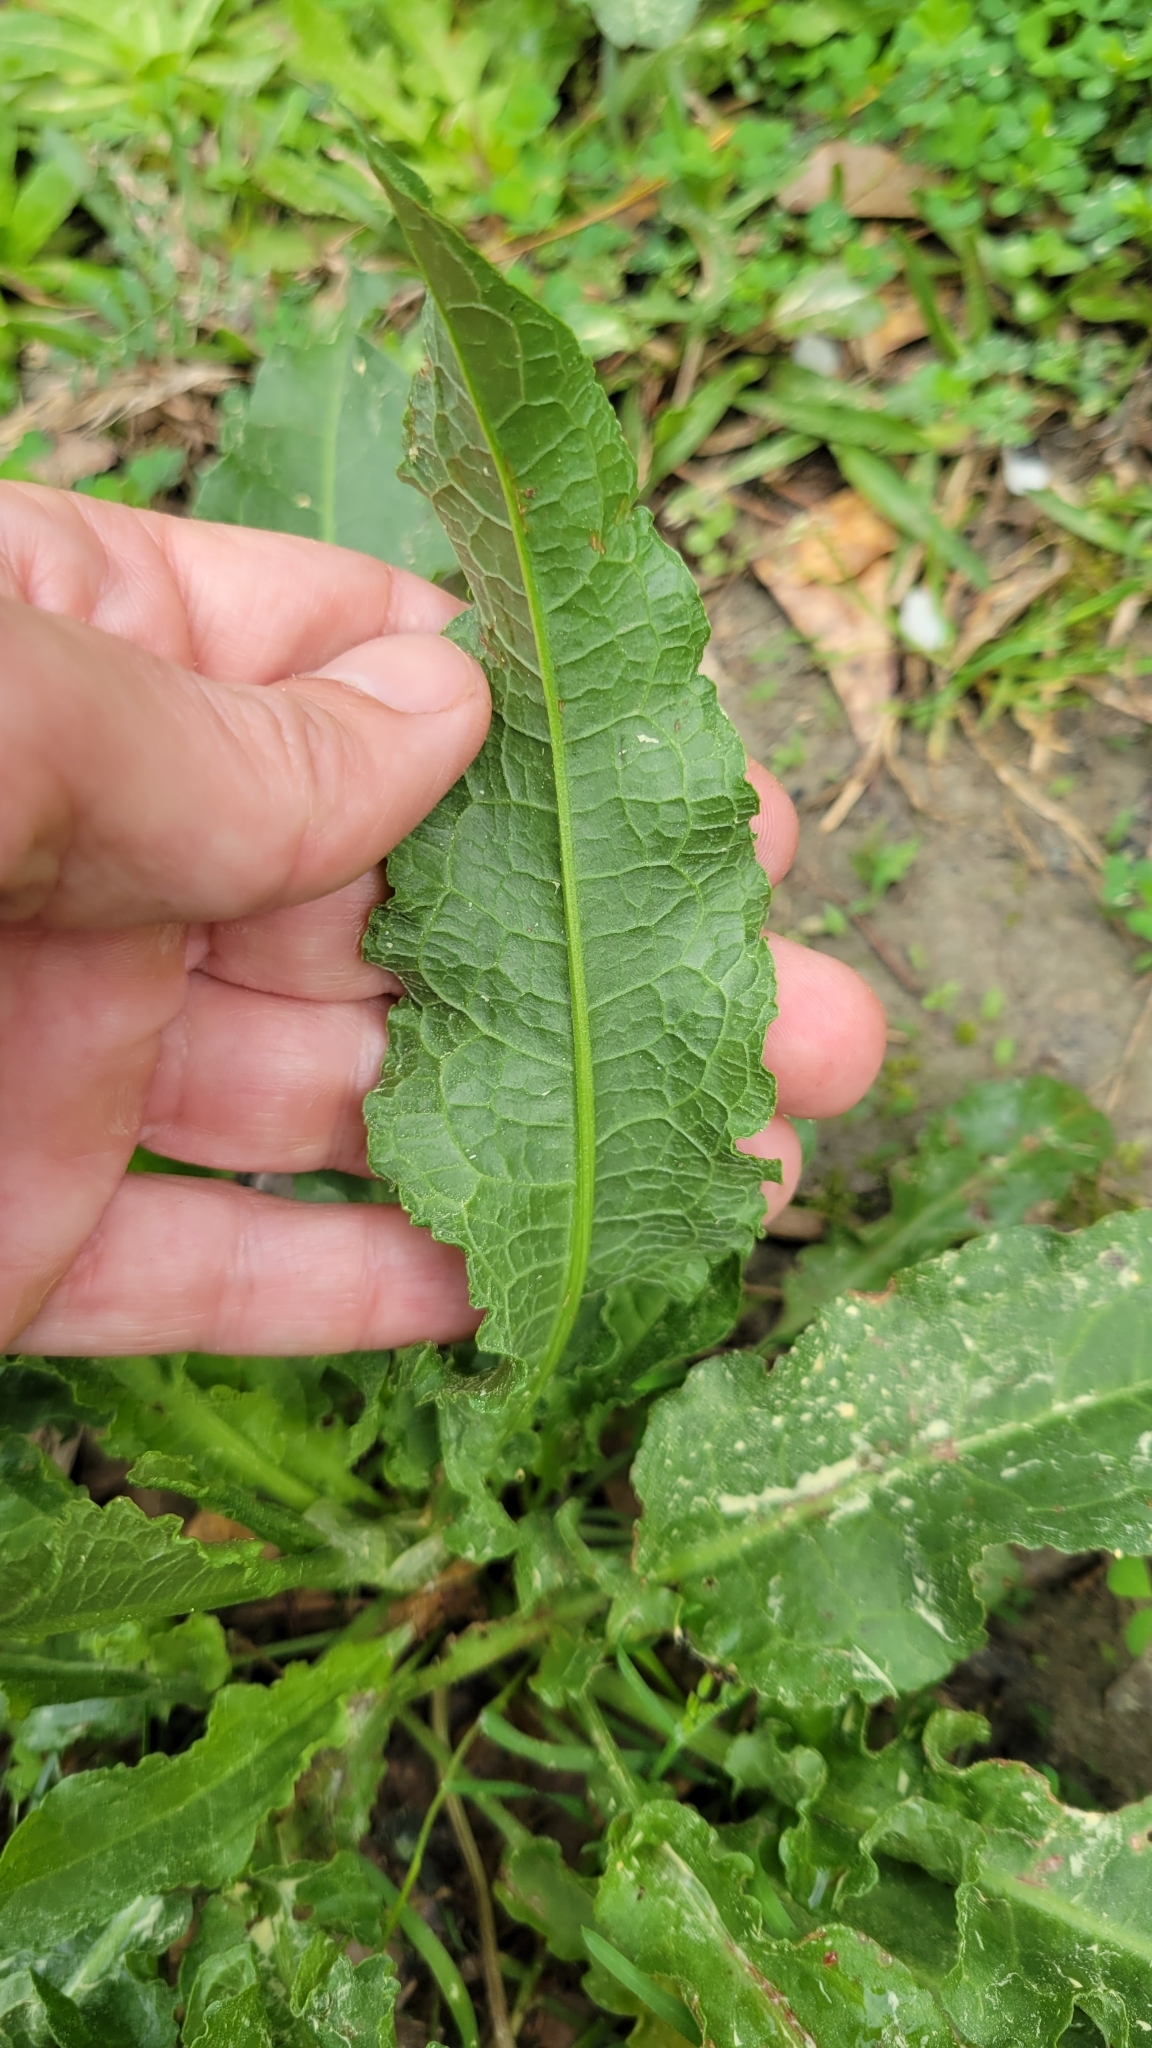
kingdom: Plantae
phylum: Tracheophyta
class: Magnoliopsida
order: Caryophyllales
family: Polygonaceae
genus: Rumex
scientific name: Rumex crispus
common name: Curled dock
